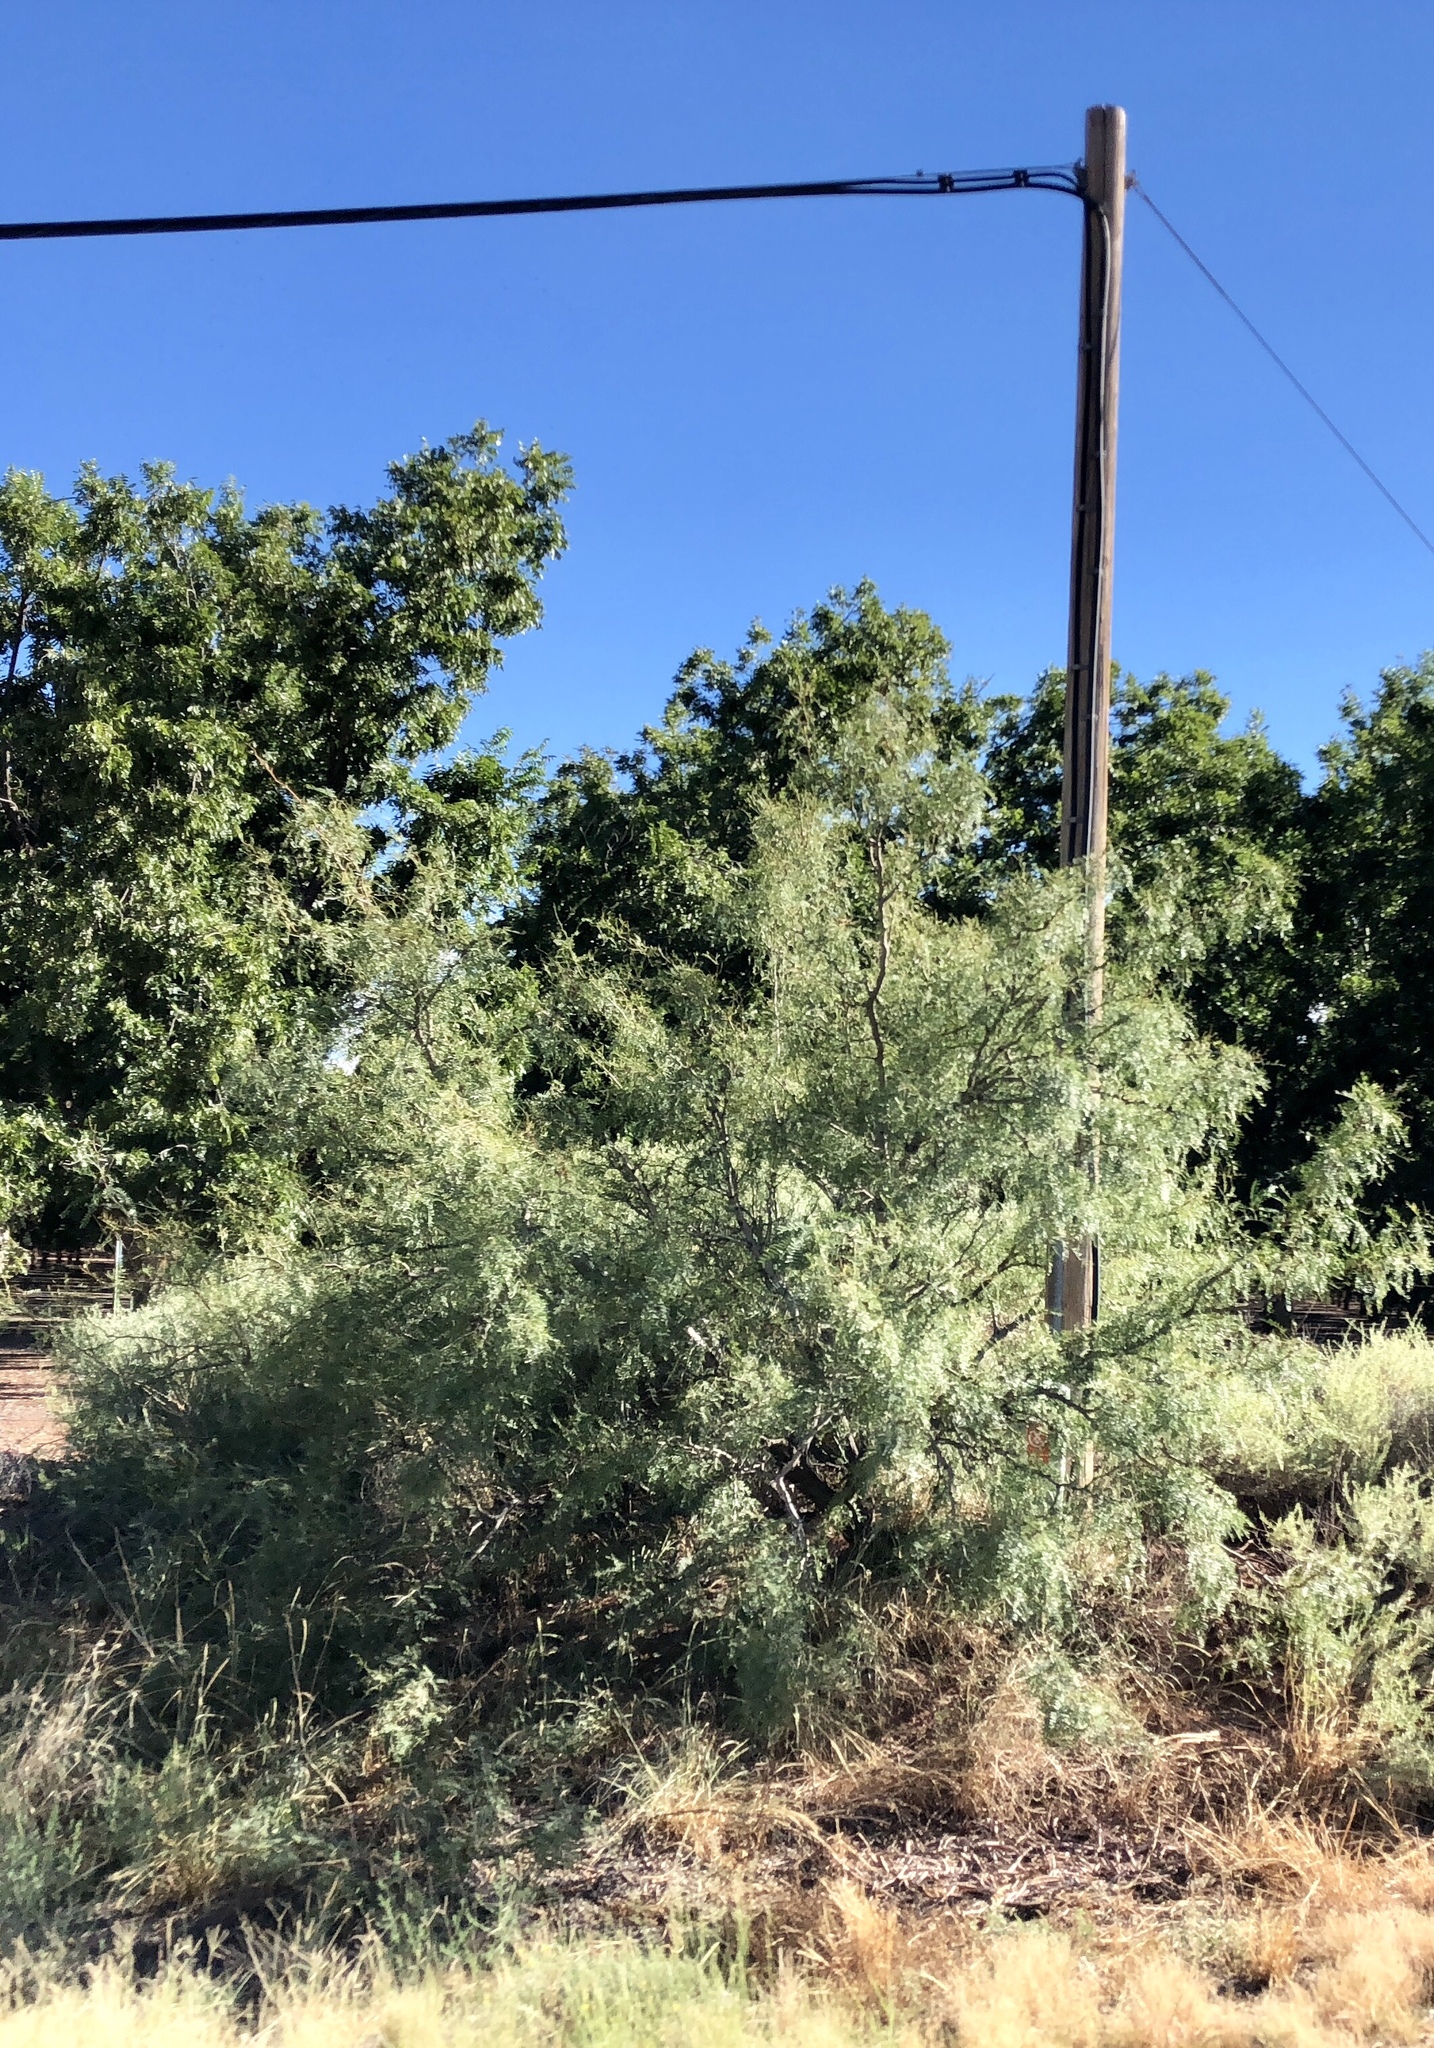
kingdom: Plantae
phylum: Tracheophyta
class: Magnoliopsida
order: Fabales
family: Fabaceae
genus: Prosopis
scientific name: Prosopis glandulosa
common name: Honey mesquite
